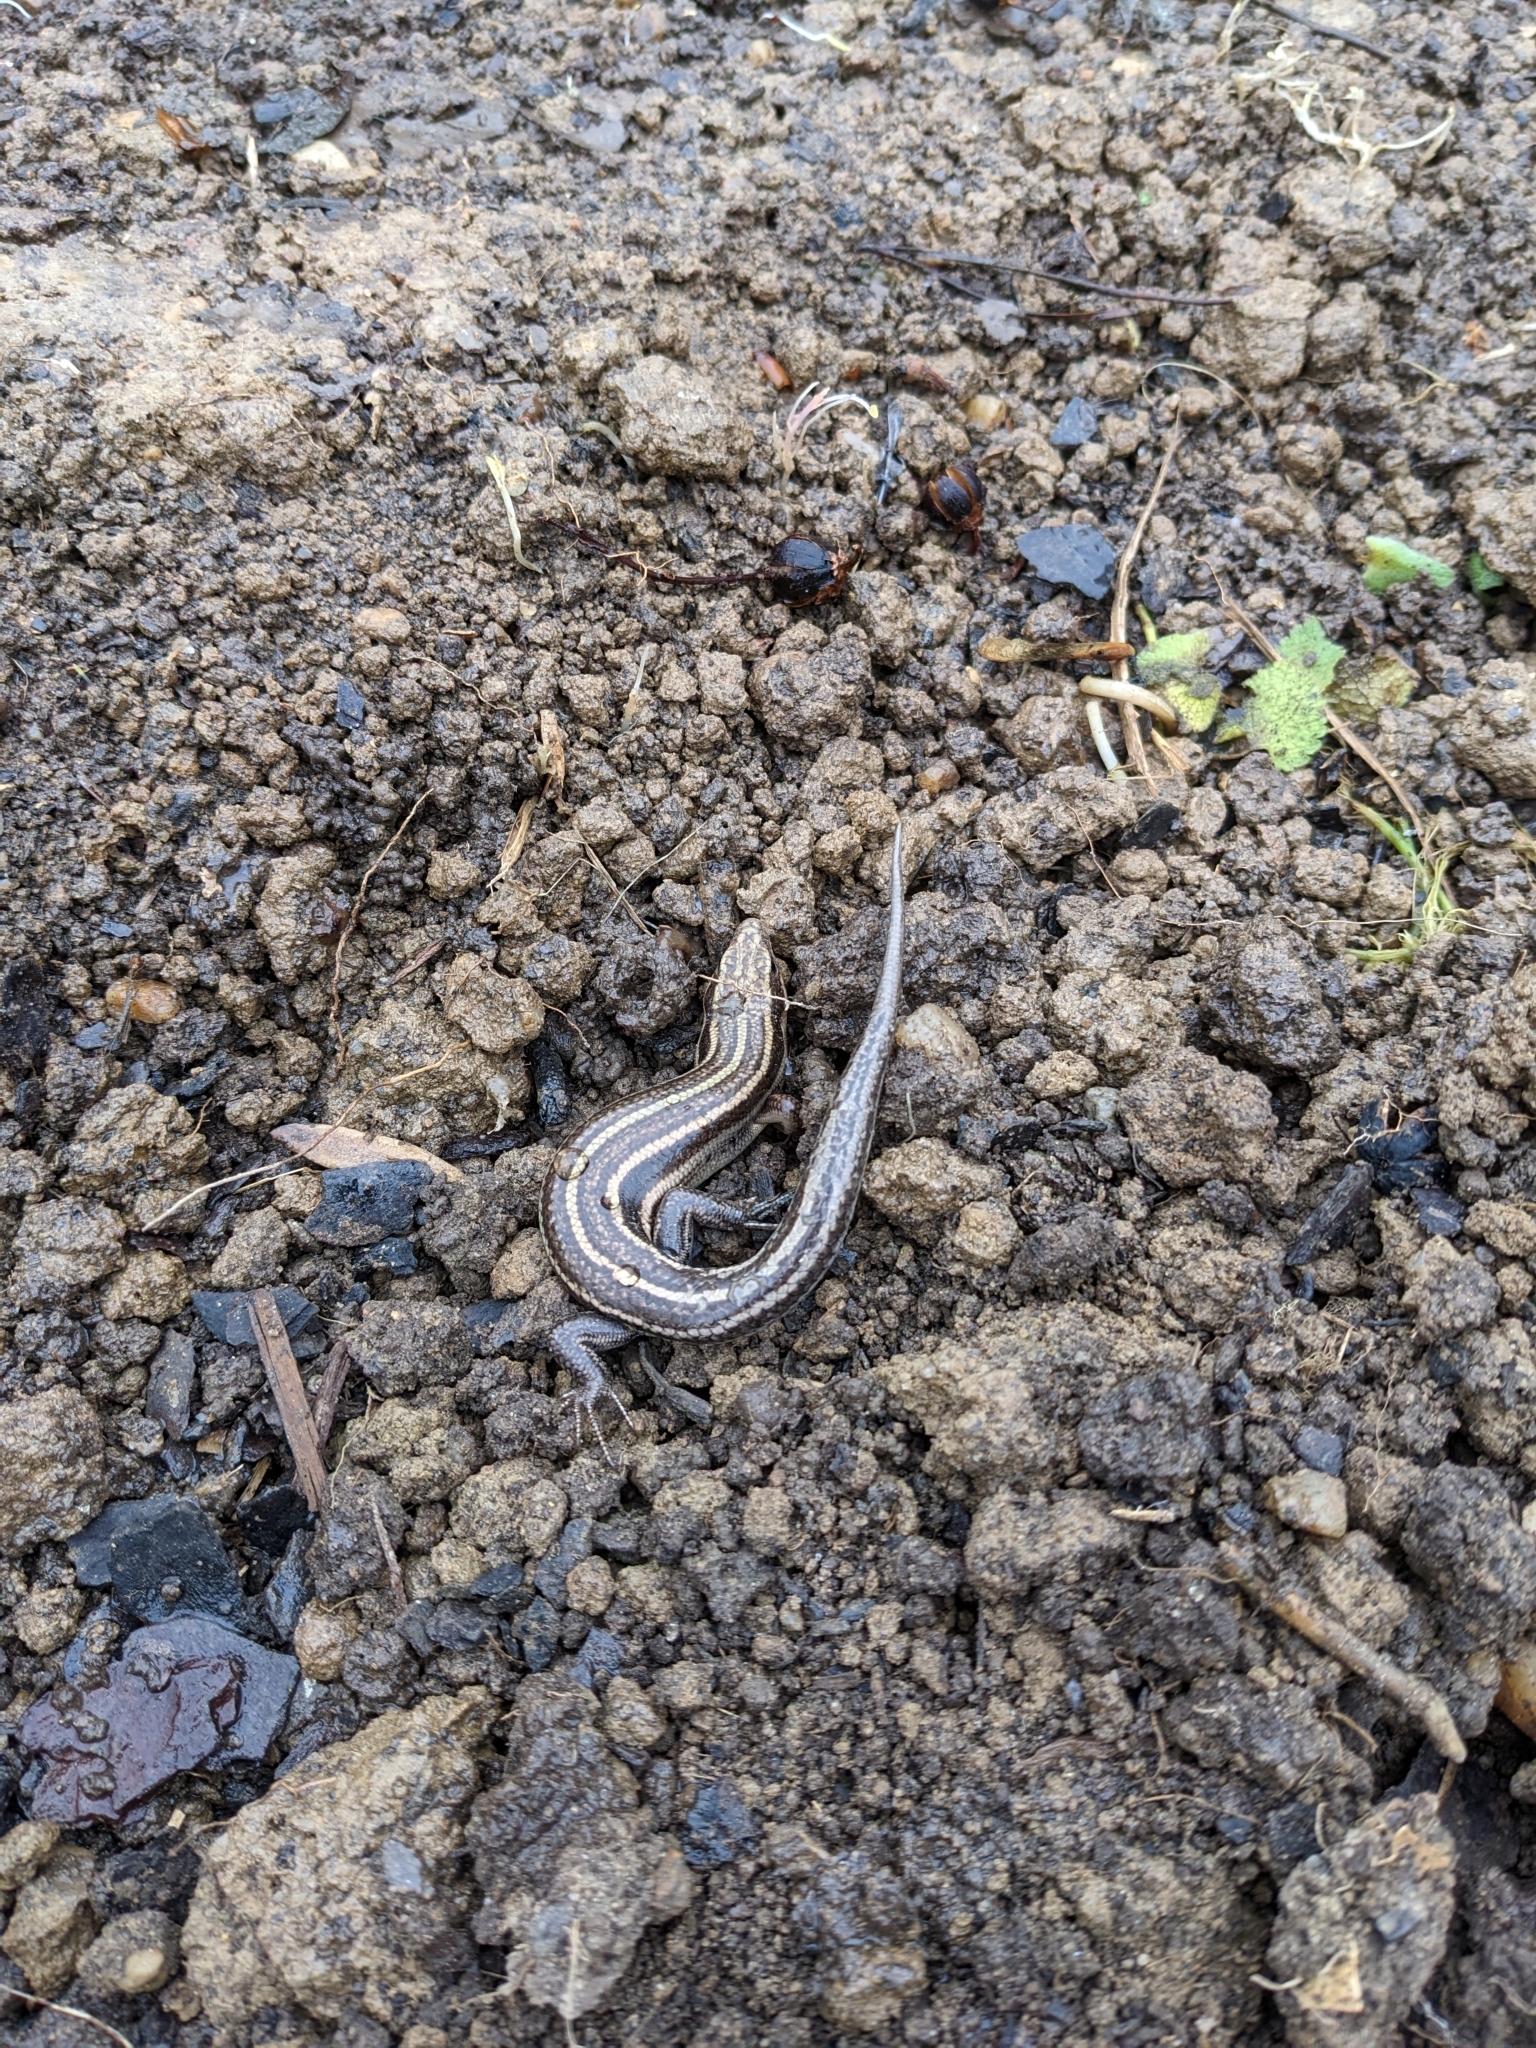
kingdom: Animalia
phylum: Chordata
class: Squamata
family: Scincidae
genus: Plestiodon
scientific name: Plestiodon fasciatus
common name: Five-lined skink
